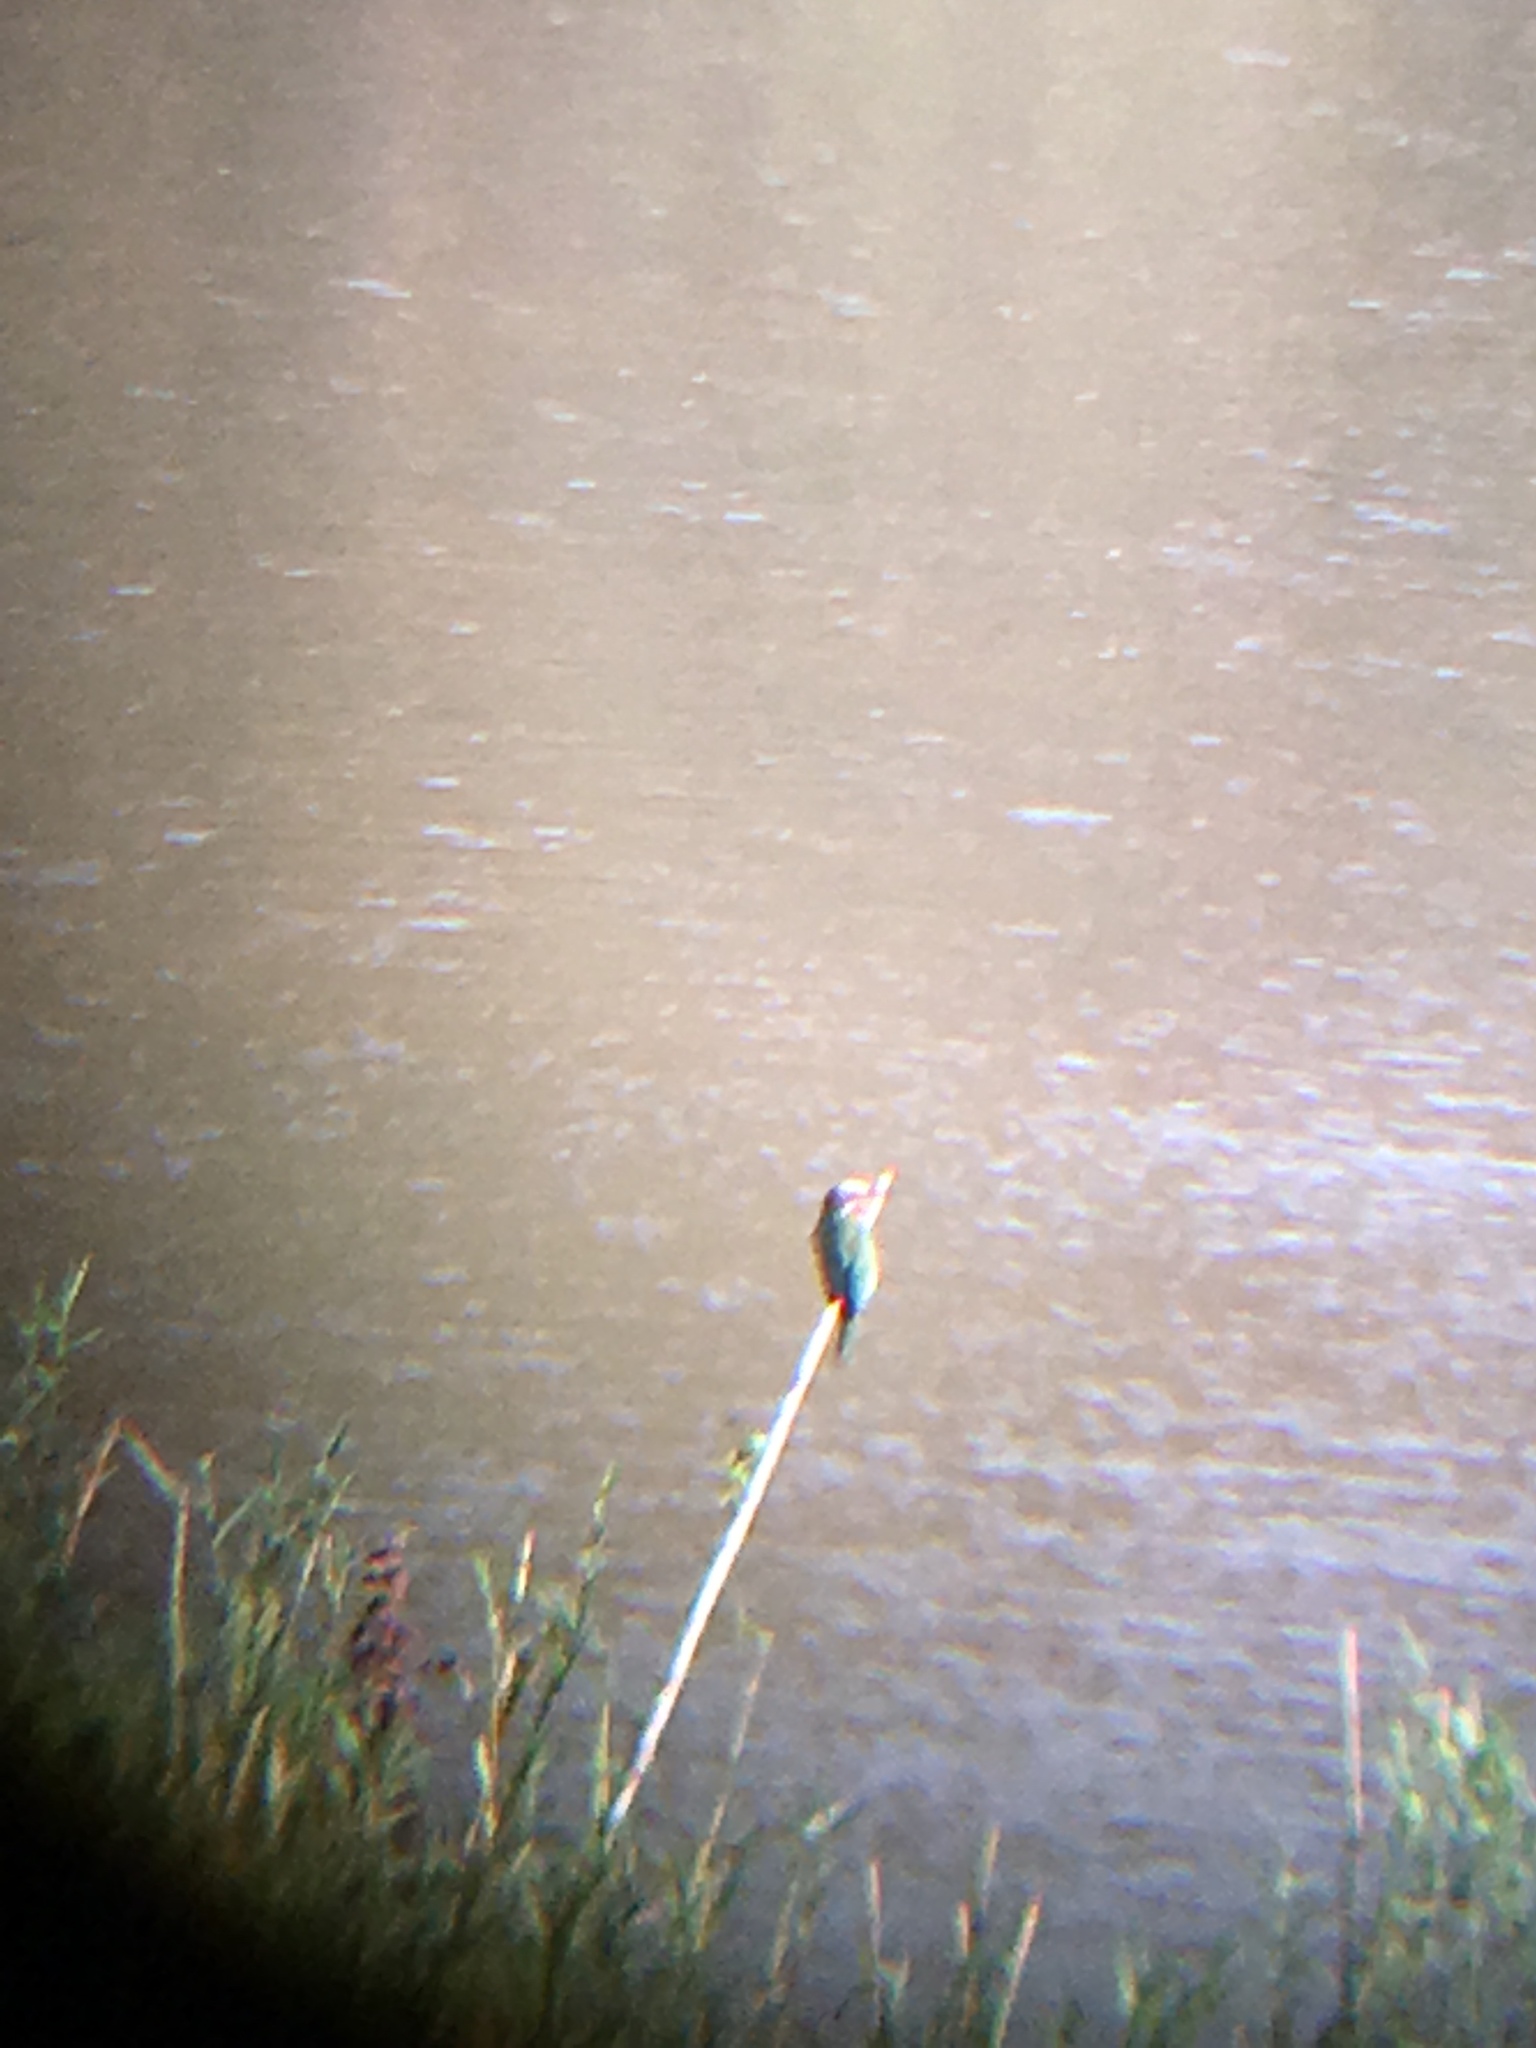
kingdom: Animalia
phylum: Chordata
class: Aves
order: Coraciiformes
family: Meropidae
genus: Merops
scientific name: Merops bullockoides
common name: White-fronted bee-eater
